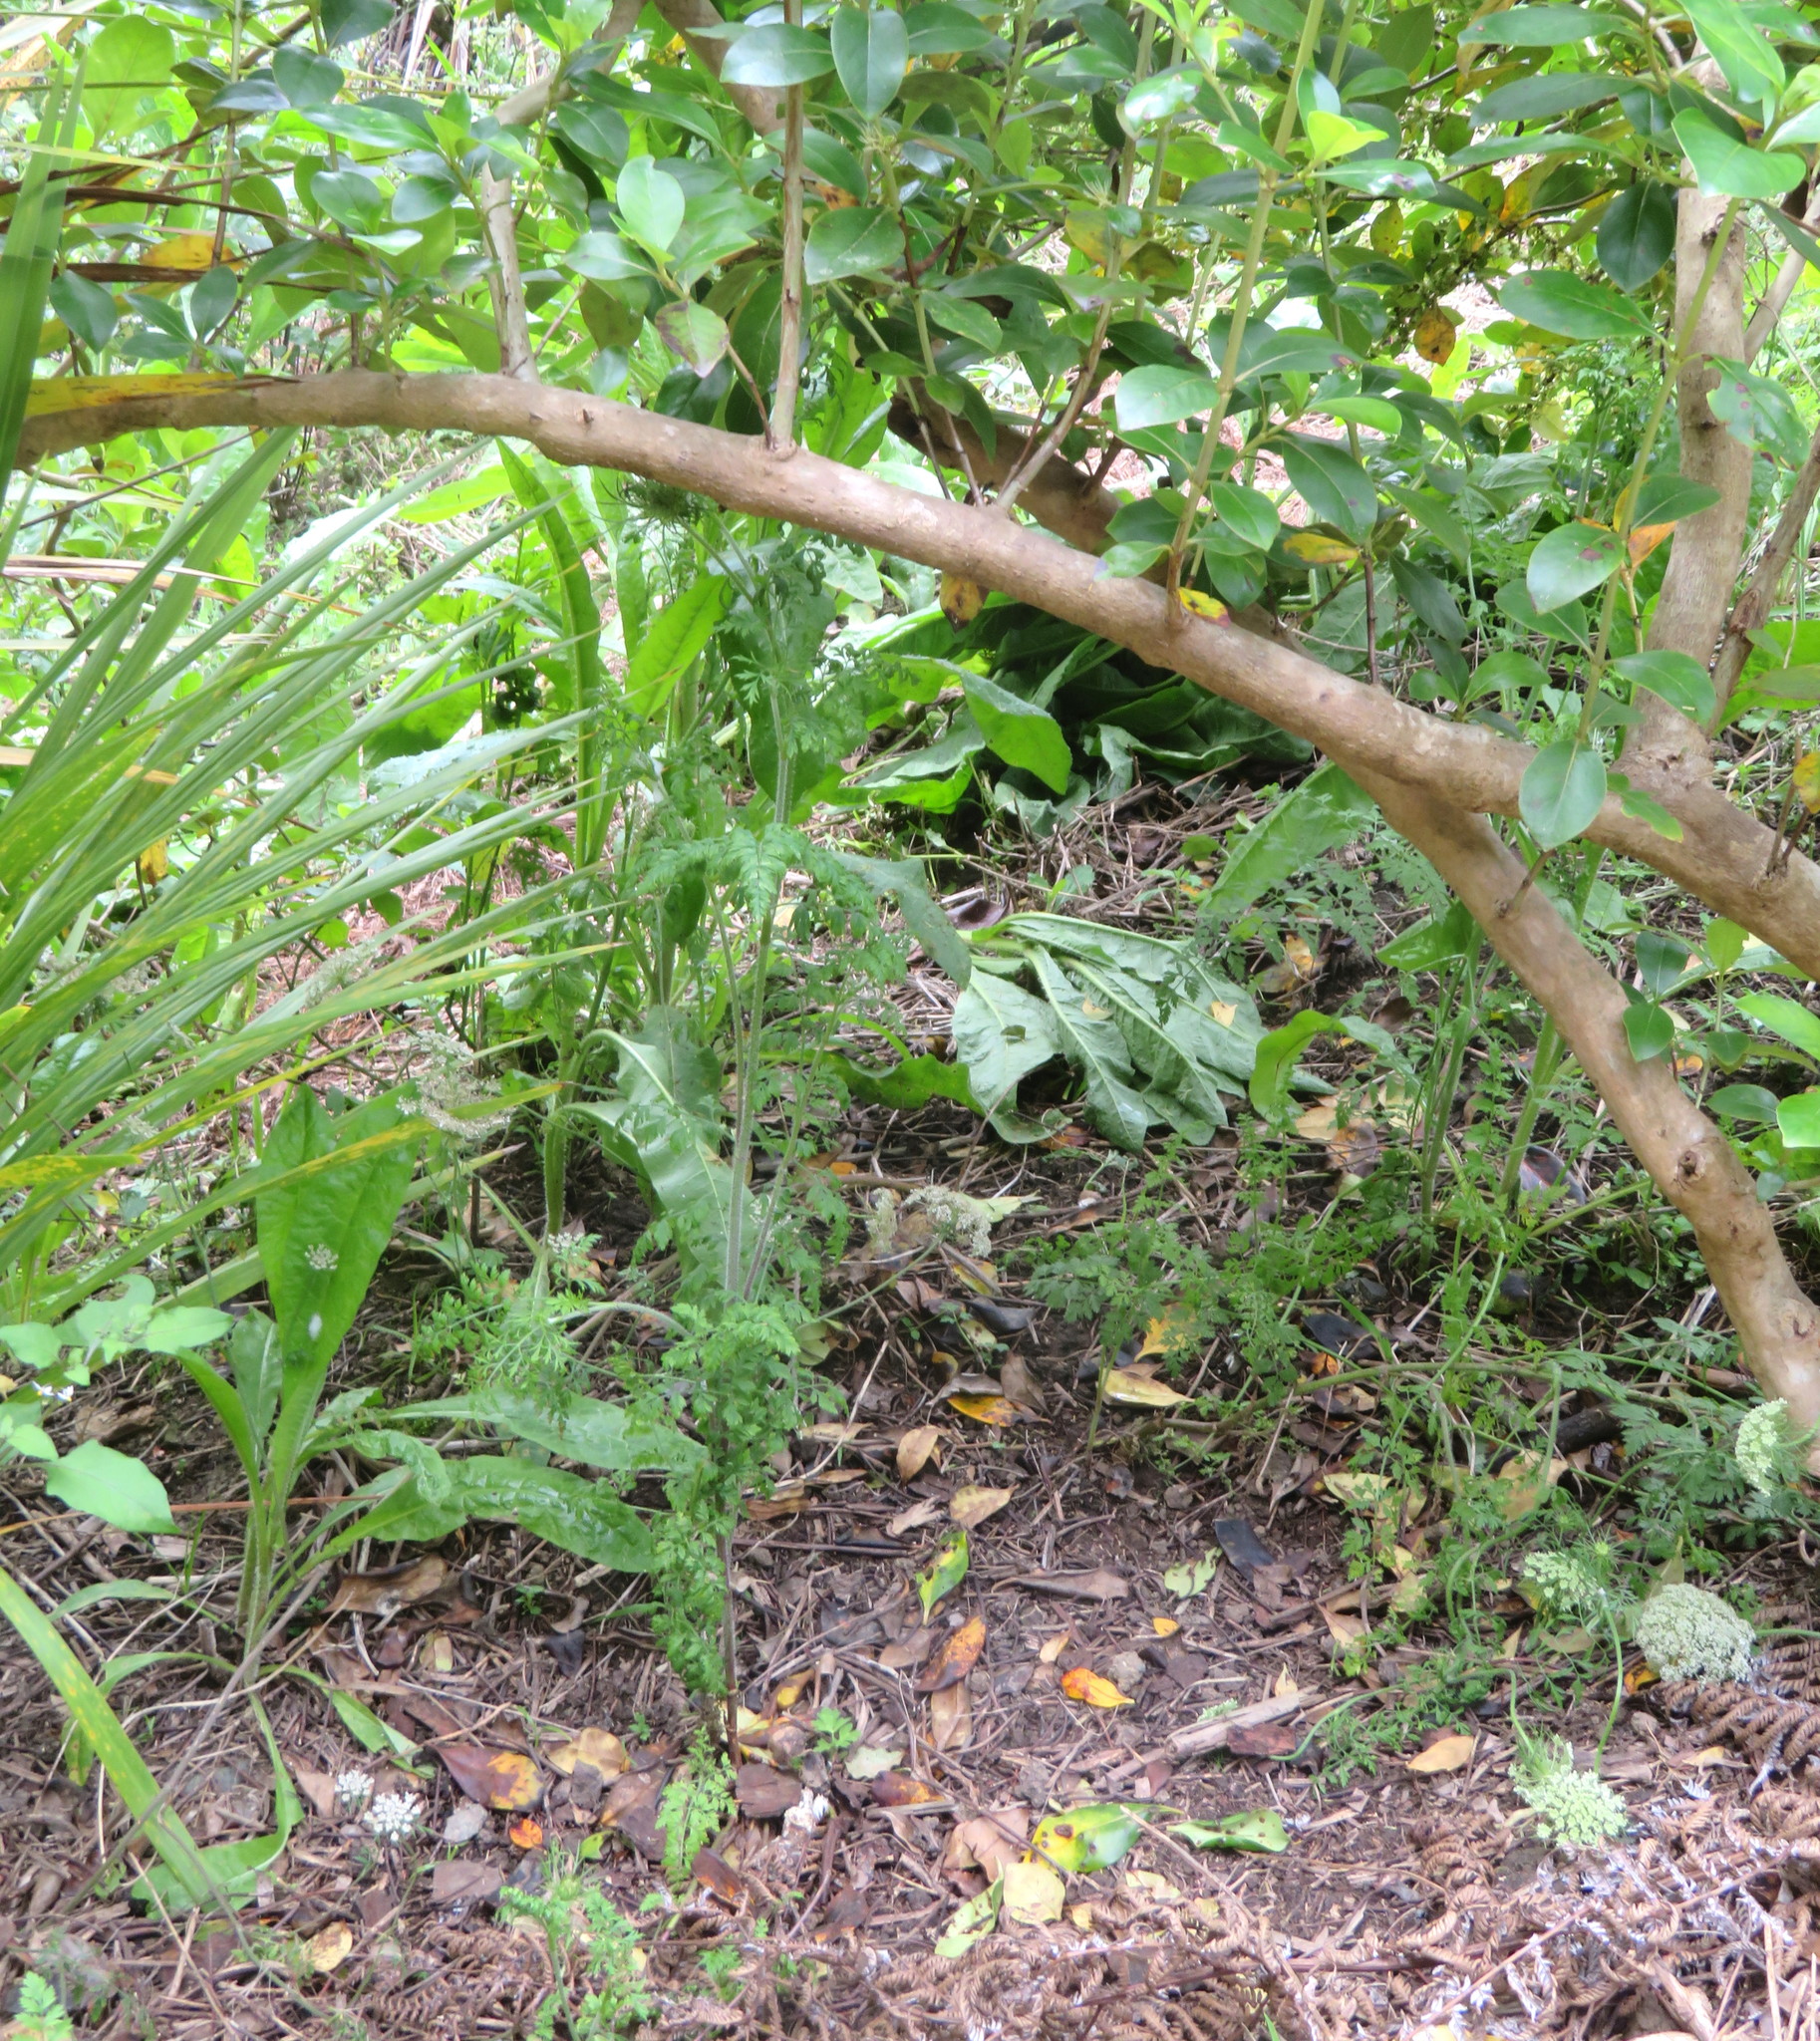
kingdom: Plantae
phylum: Tracheophyta
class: Magnoliopsida
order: Apiales
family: Apiaceae
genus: Daucus
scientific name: Daucus carota
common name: Wild carrot
